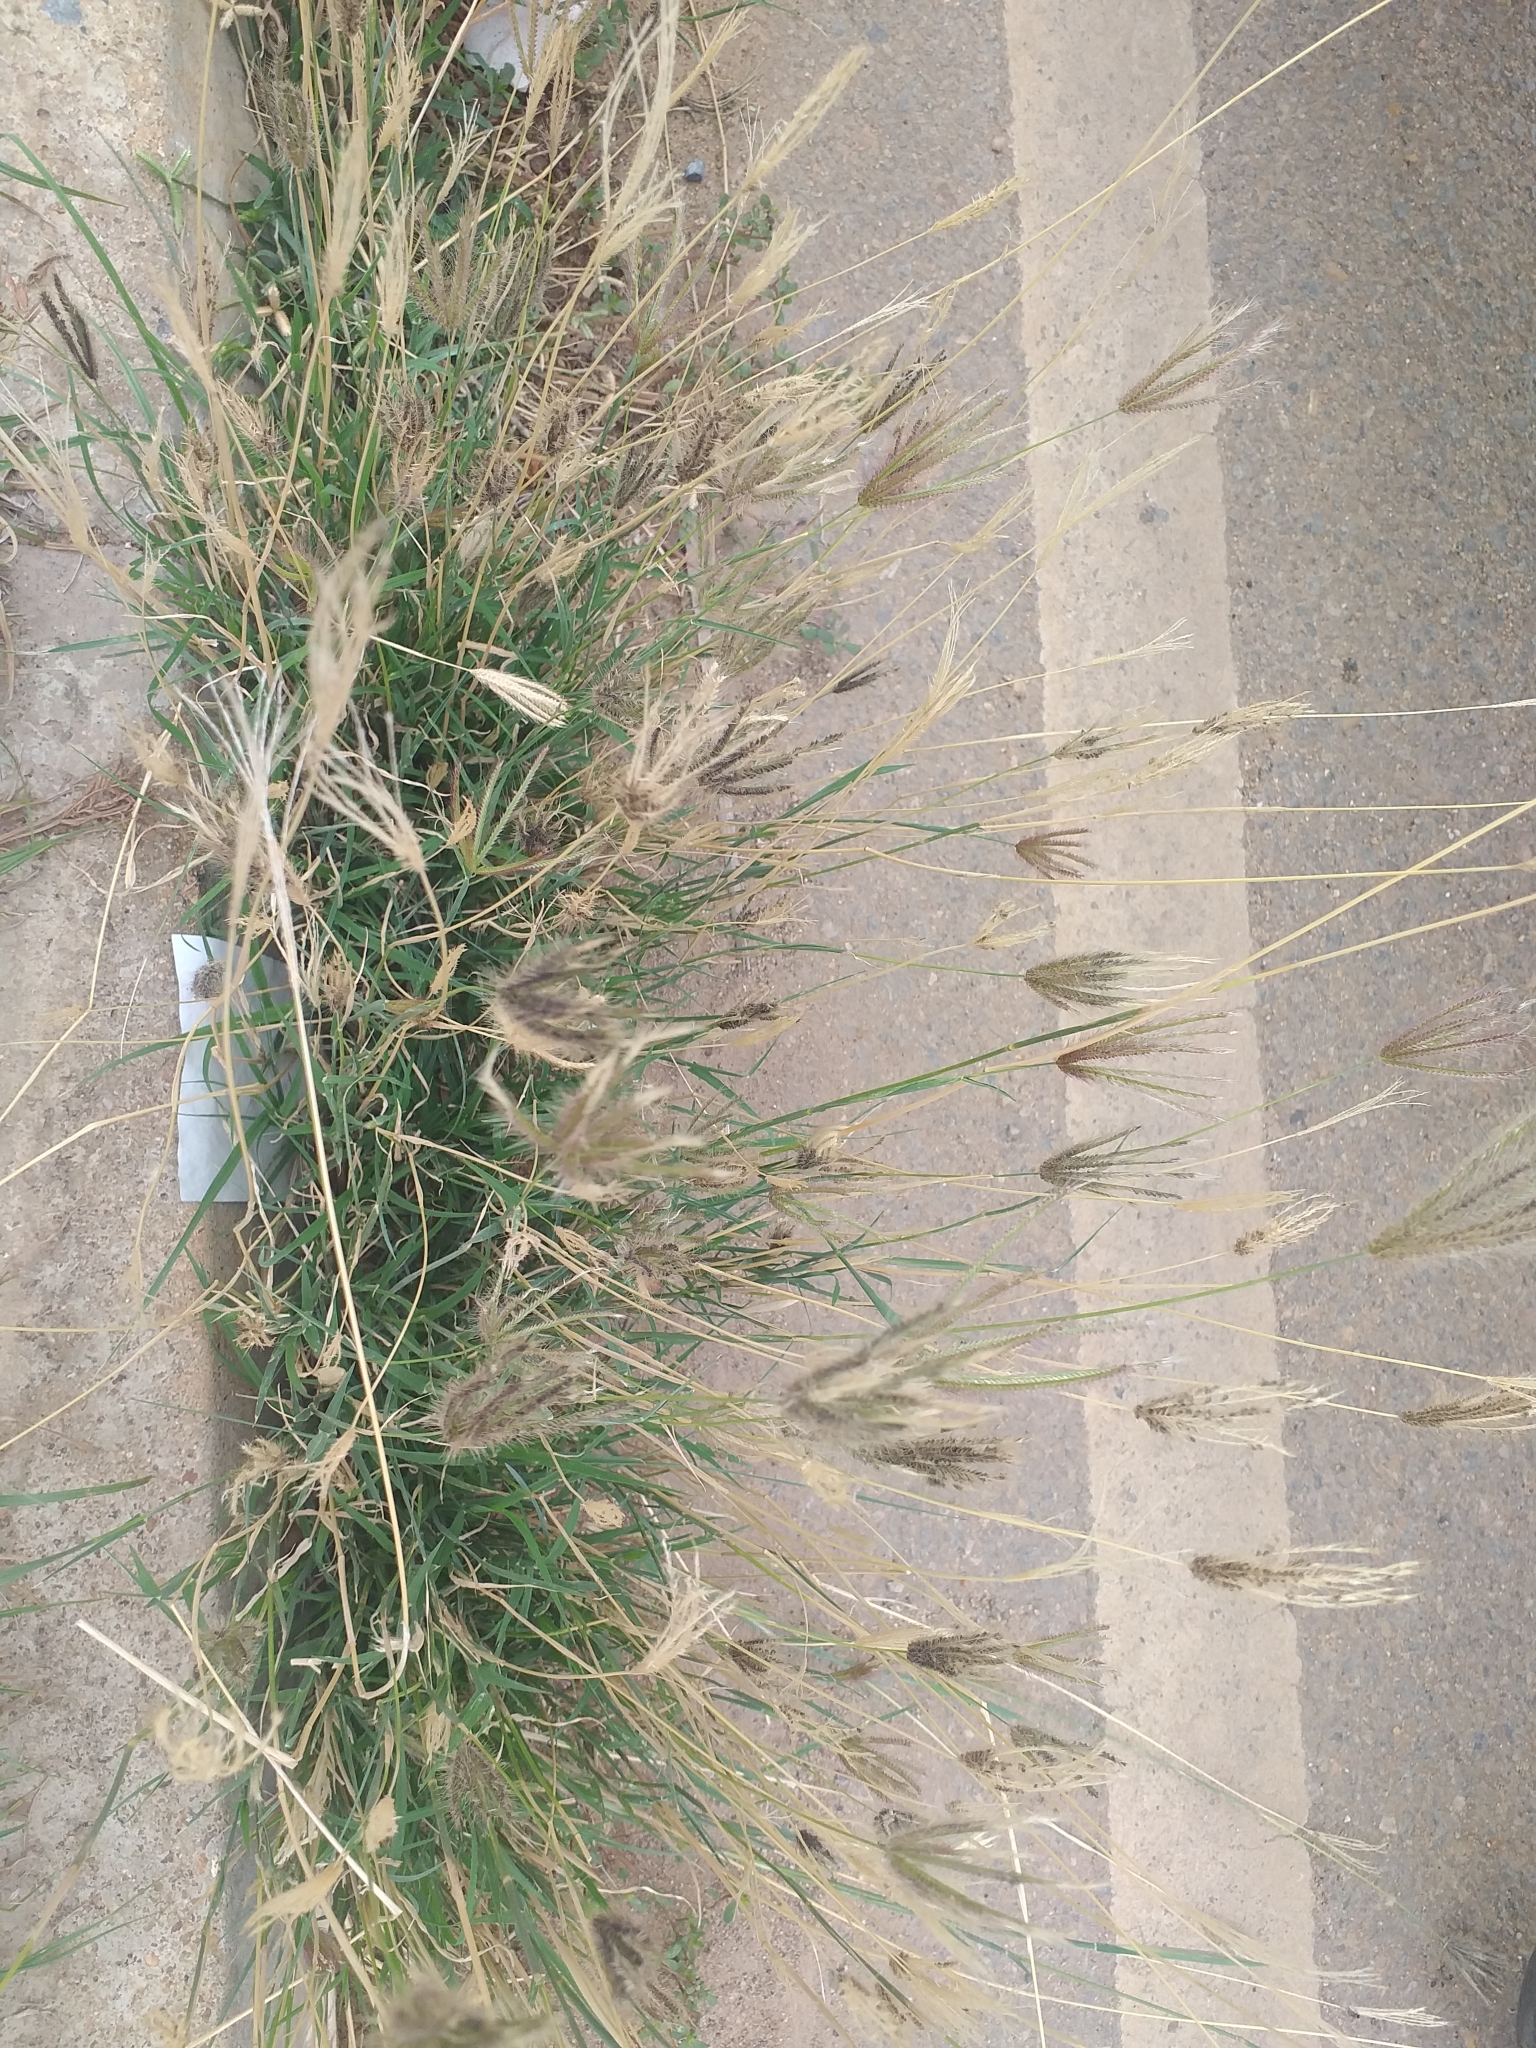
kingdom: Plantae
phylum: Tracheophyta
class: Liliopsida
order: Poales
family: Poaceae
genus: Chloris
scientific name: Chloris barbata
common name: Swollen fingergrass
